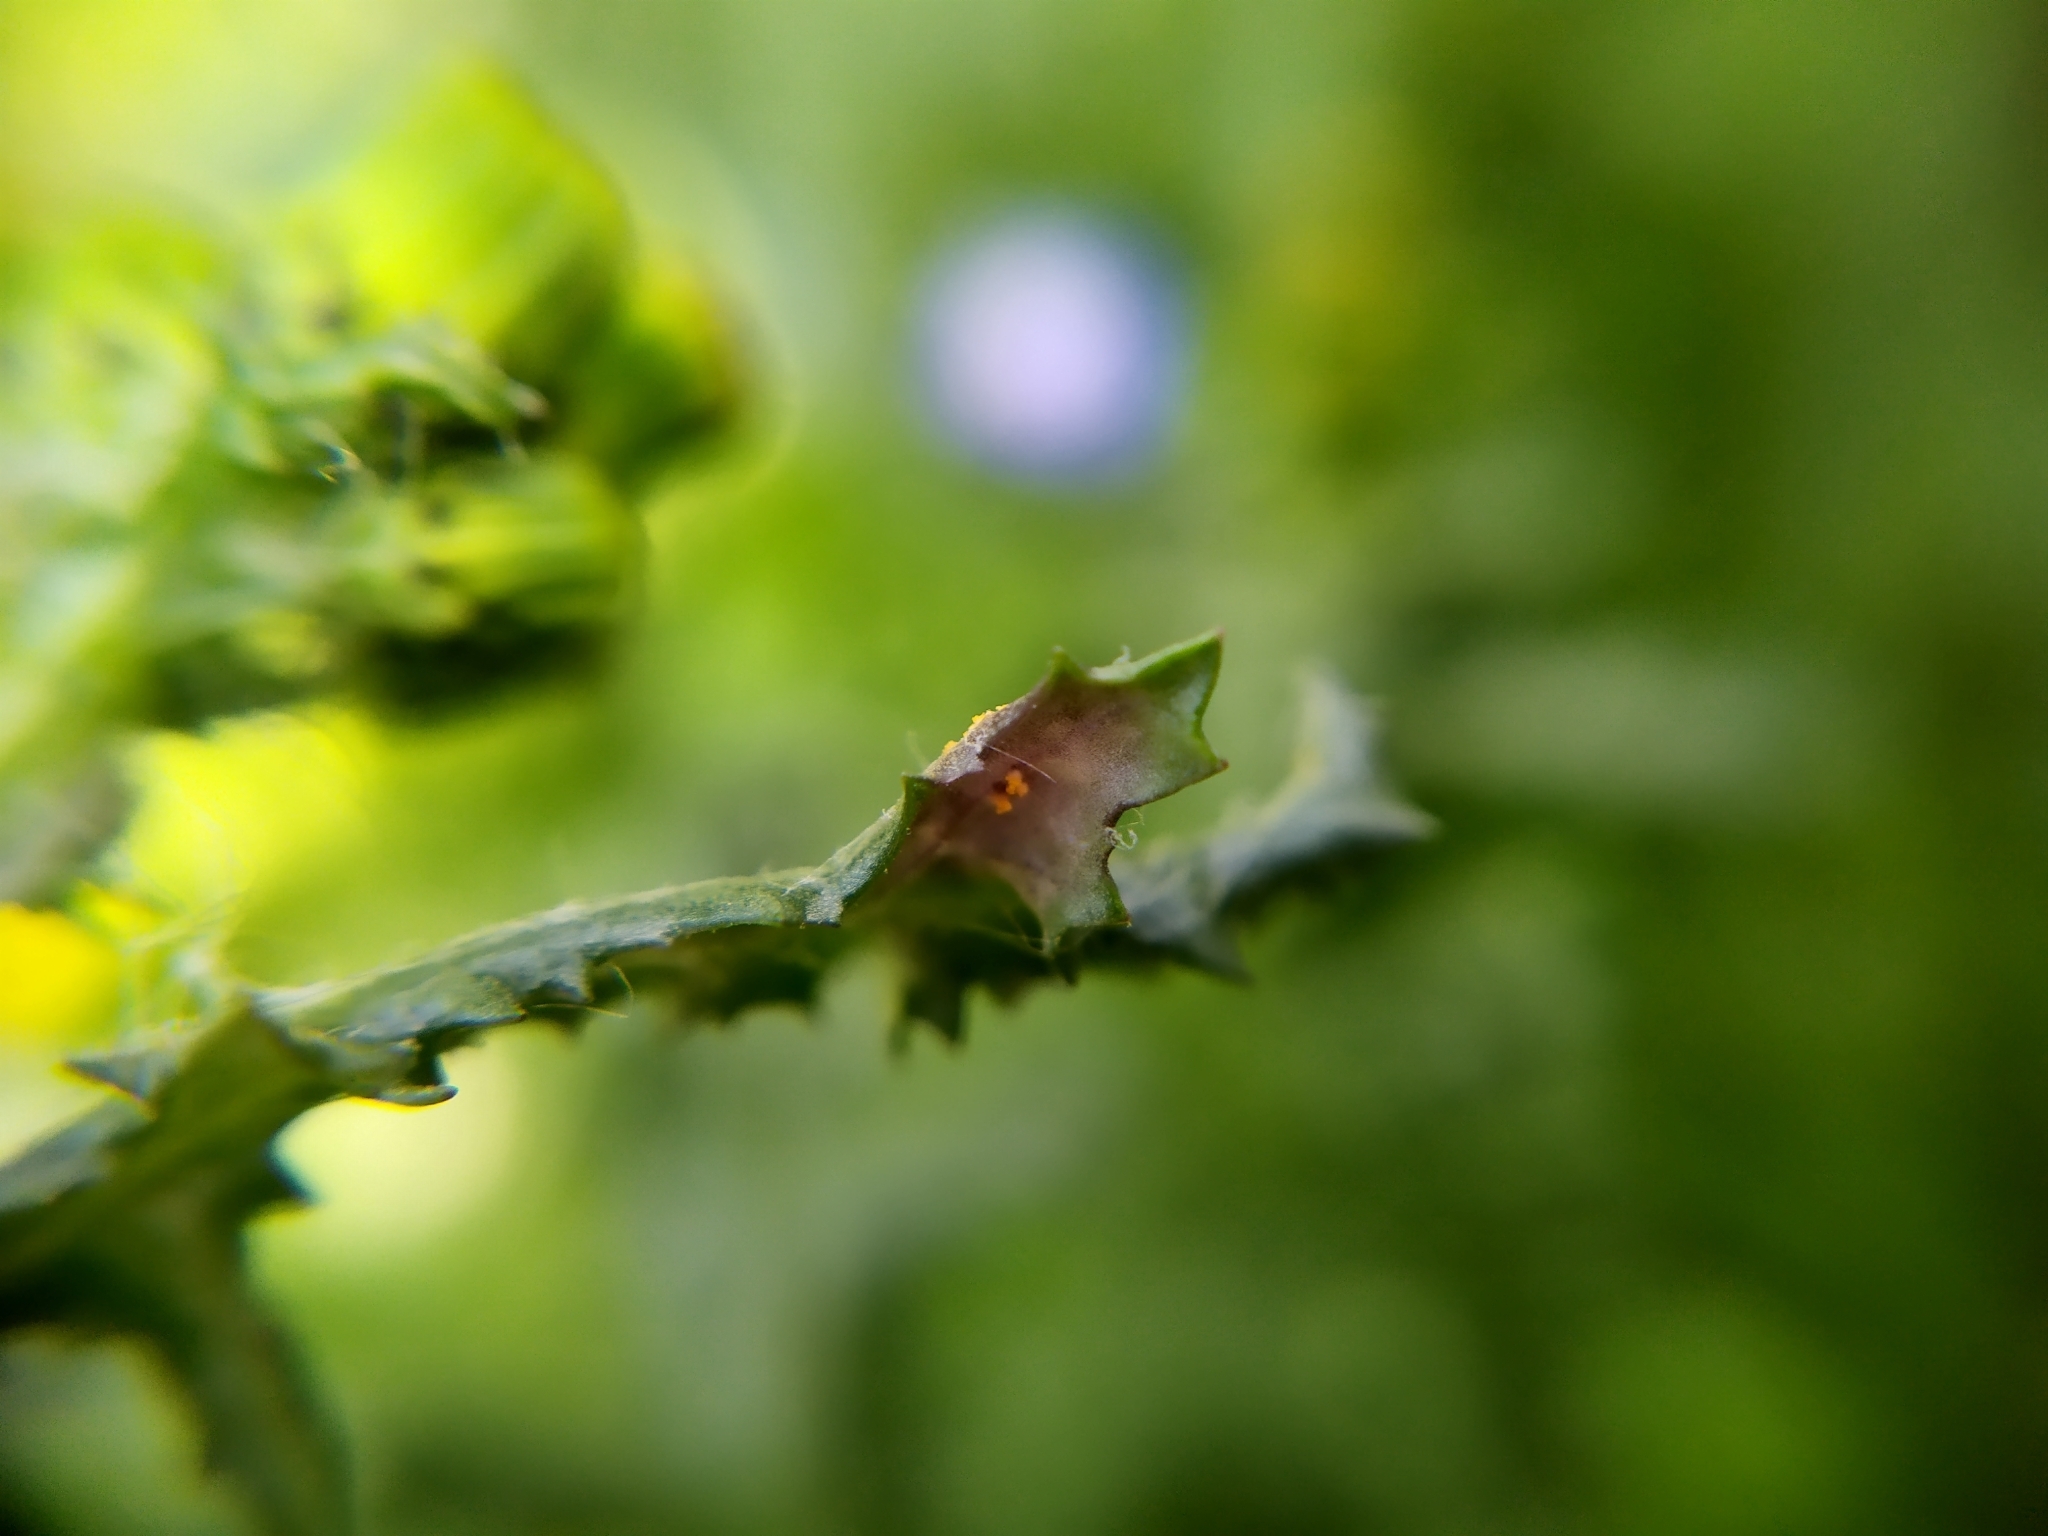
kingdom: Fungi
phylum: Basidiomycota
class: Pucciniomycetes
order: Pucciniales
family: Pucciniaceae
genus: Puccinia
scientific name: Puccinia lagenophorae
